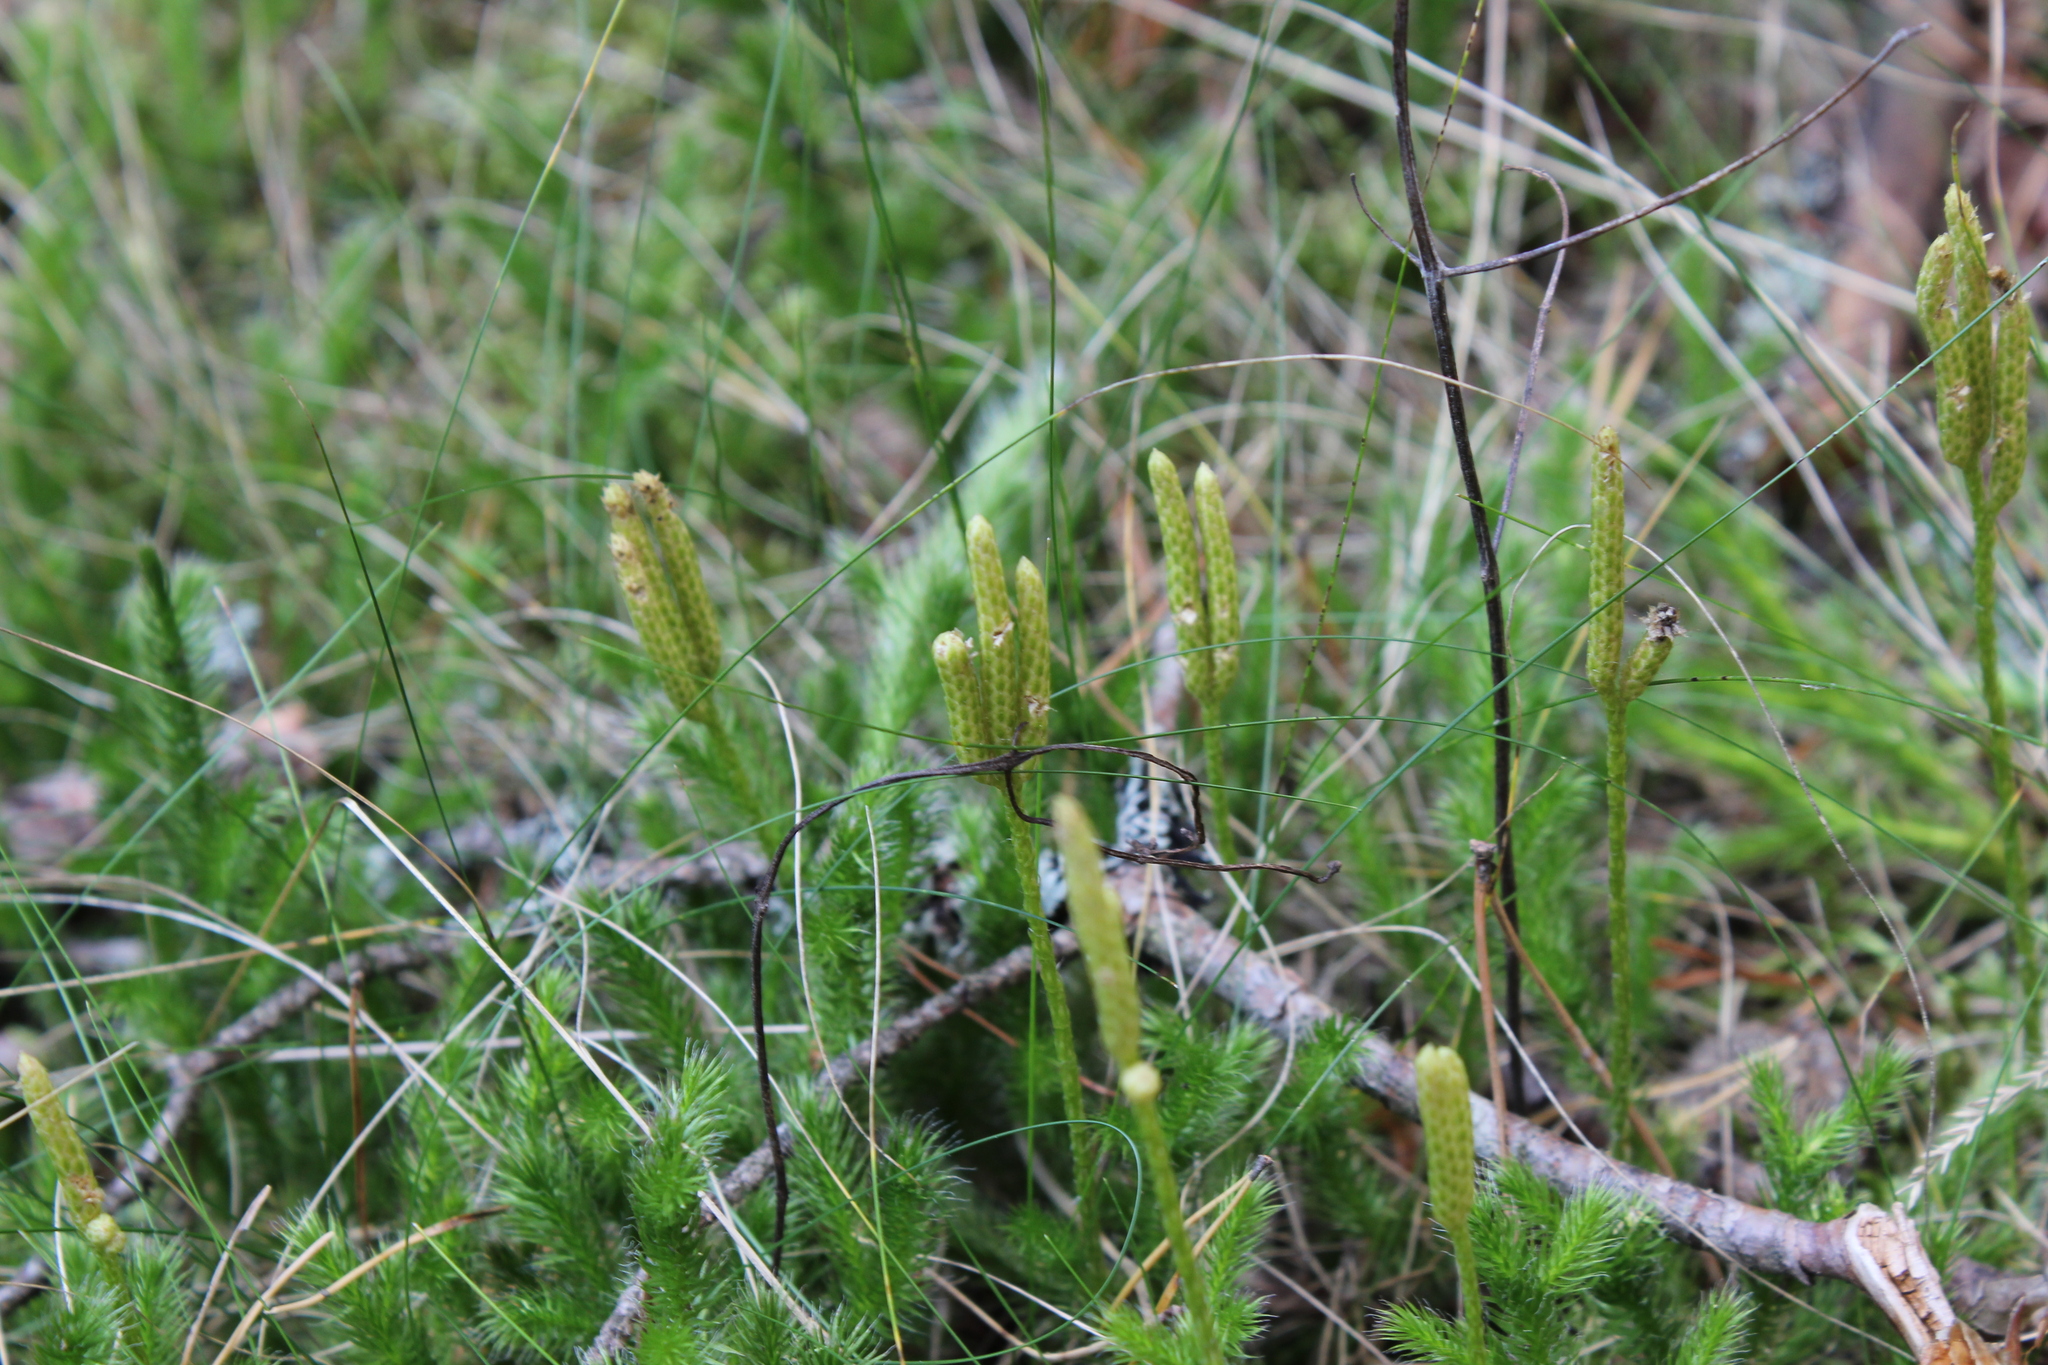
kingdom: Plantae
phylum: Tracheophyta
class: Lycopodiopsida
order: Lycopodiales
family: Lycopodiaceae
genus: Lycopodium
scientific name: Lycopodium clavatum
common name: Stag's-horn clubmoss
